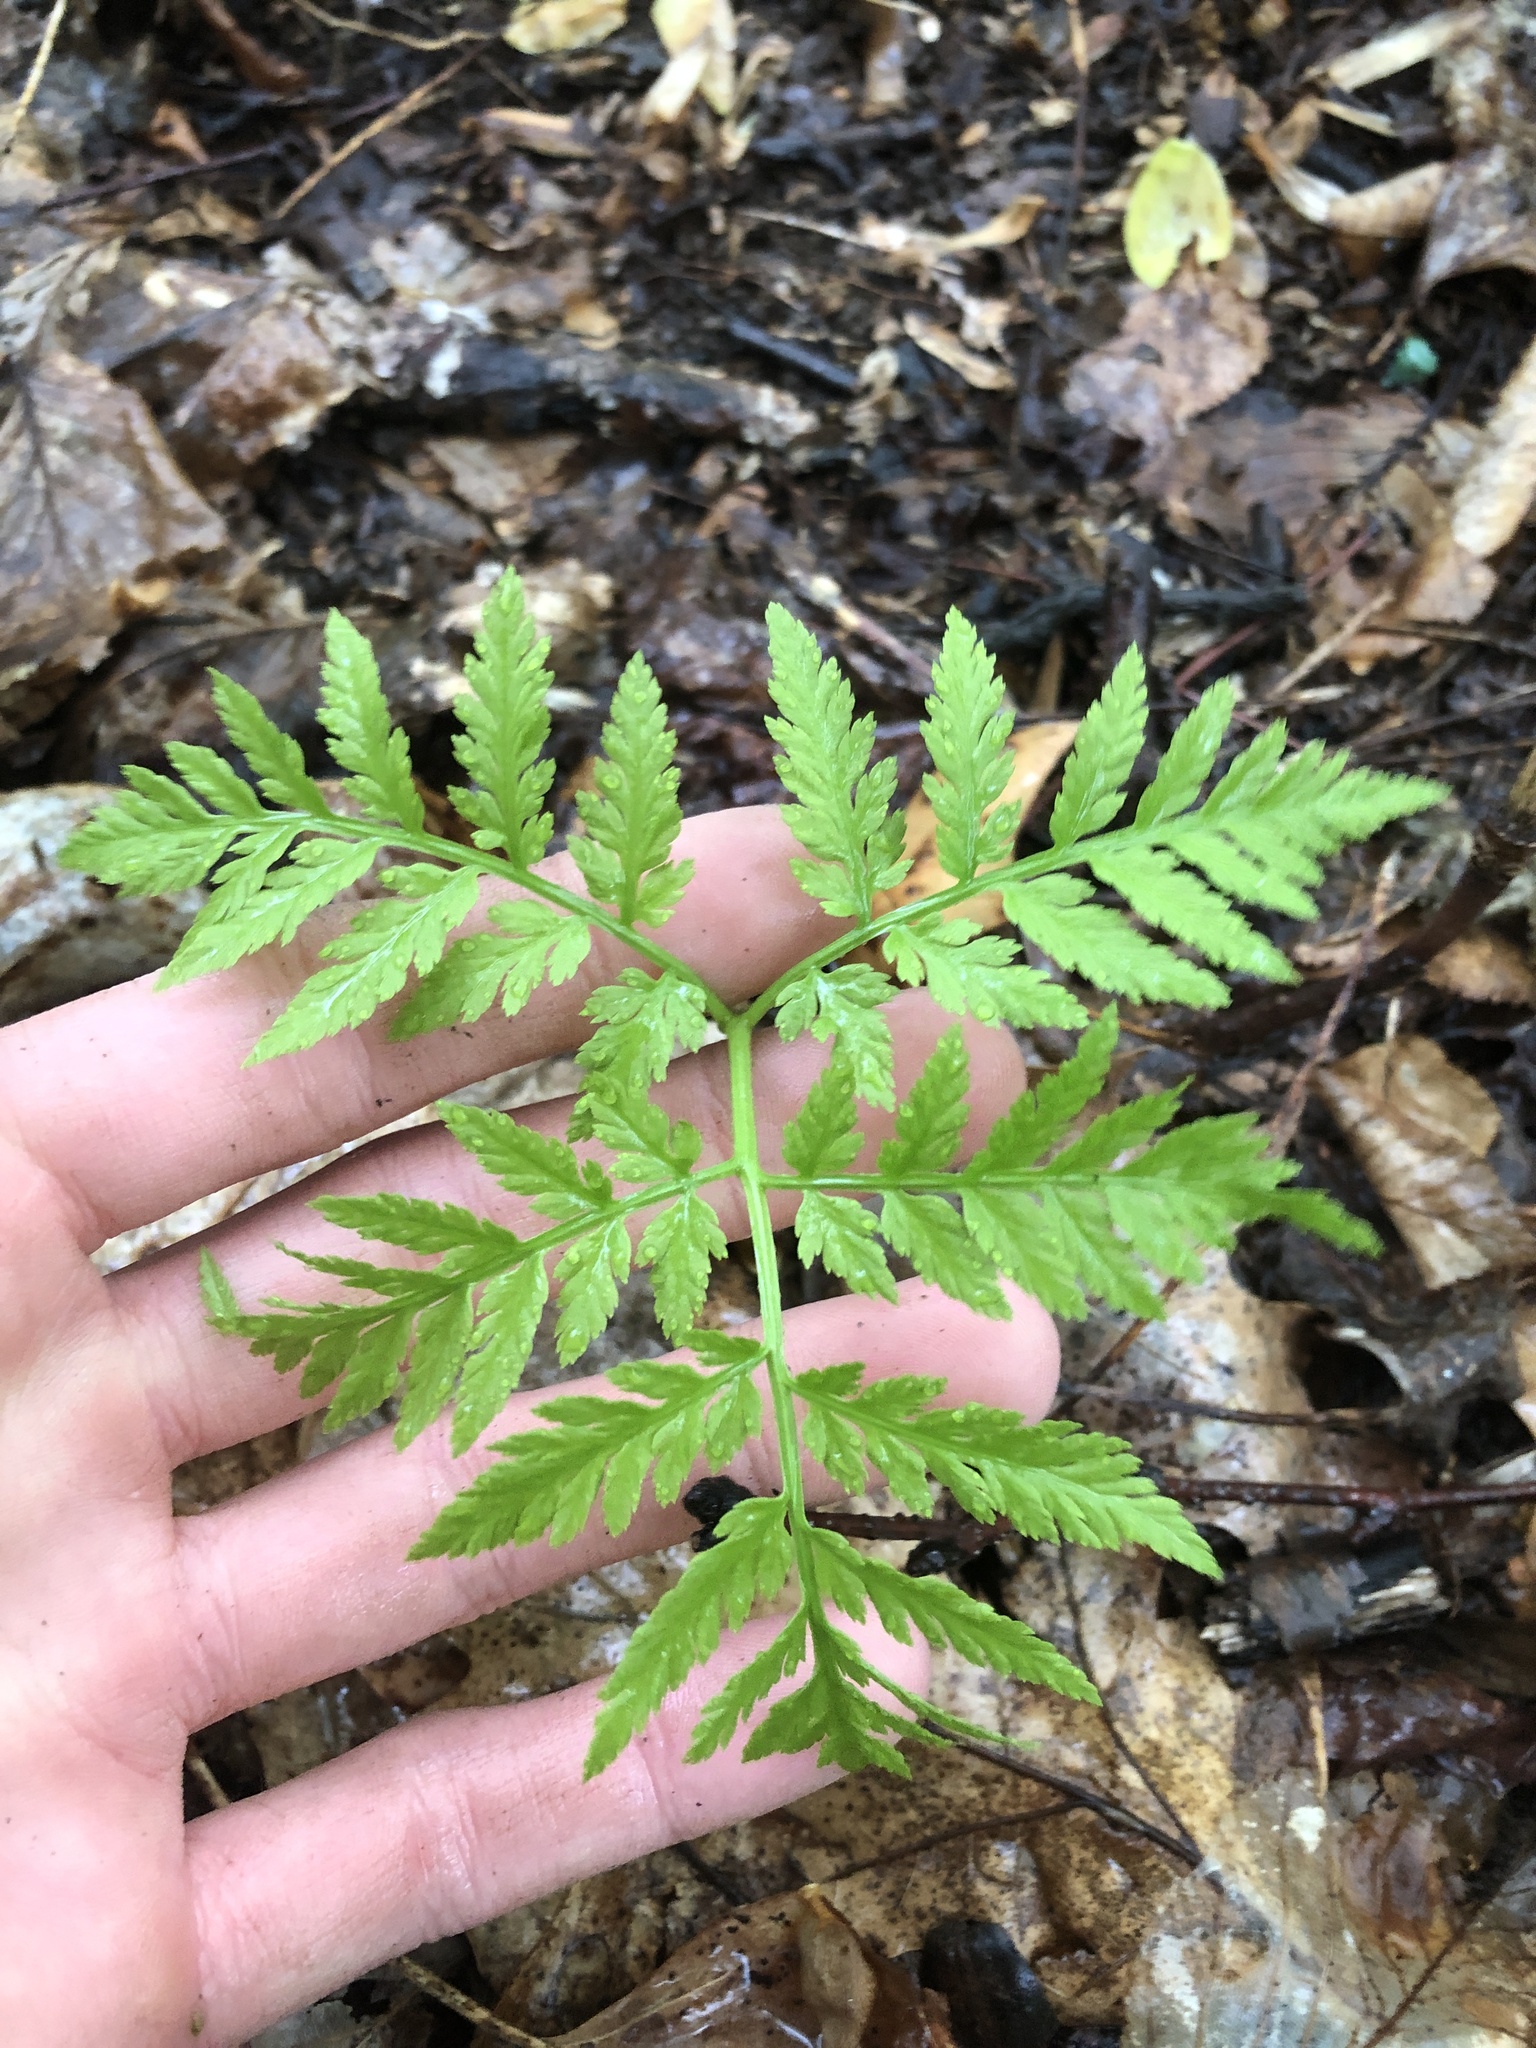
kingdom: Plantae
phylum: Tracheophyta
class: Polypodiopsida
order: Ophioglossales
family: Ophioglossaceae
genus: Botrypus
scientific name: Botrypus virginianus
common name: Common grapefern
